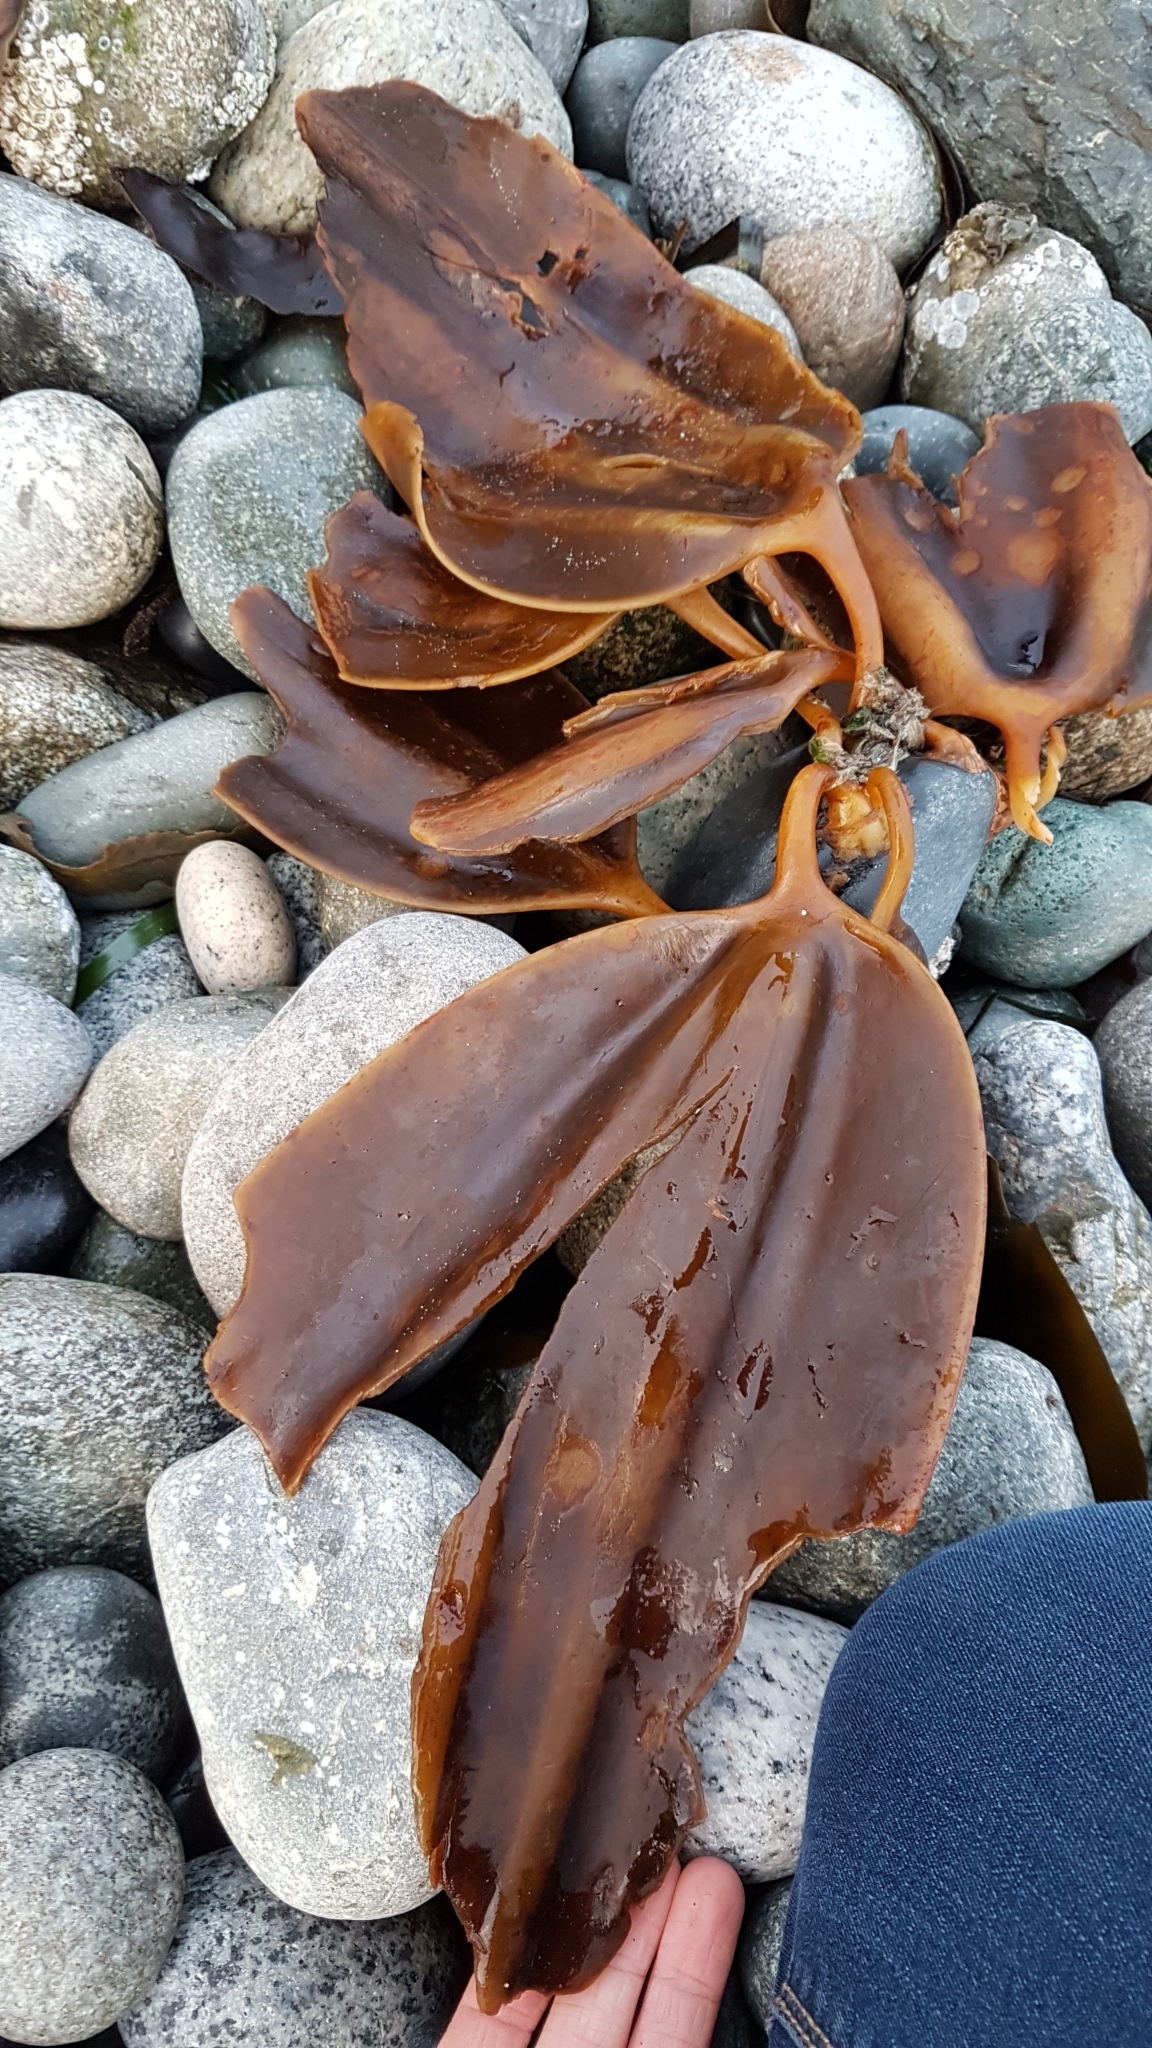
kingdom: Chromista
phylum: Ochrophyta
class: Phaeophyceae
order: Laminariales
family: Laminariaceae
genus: Cymathaere
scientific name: Cymathaere triplicata
